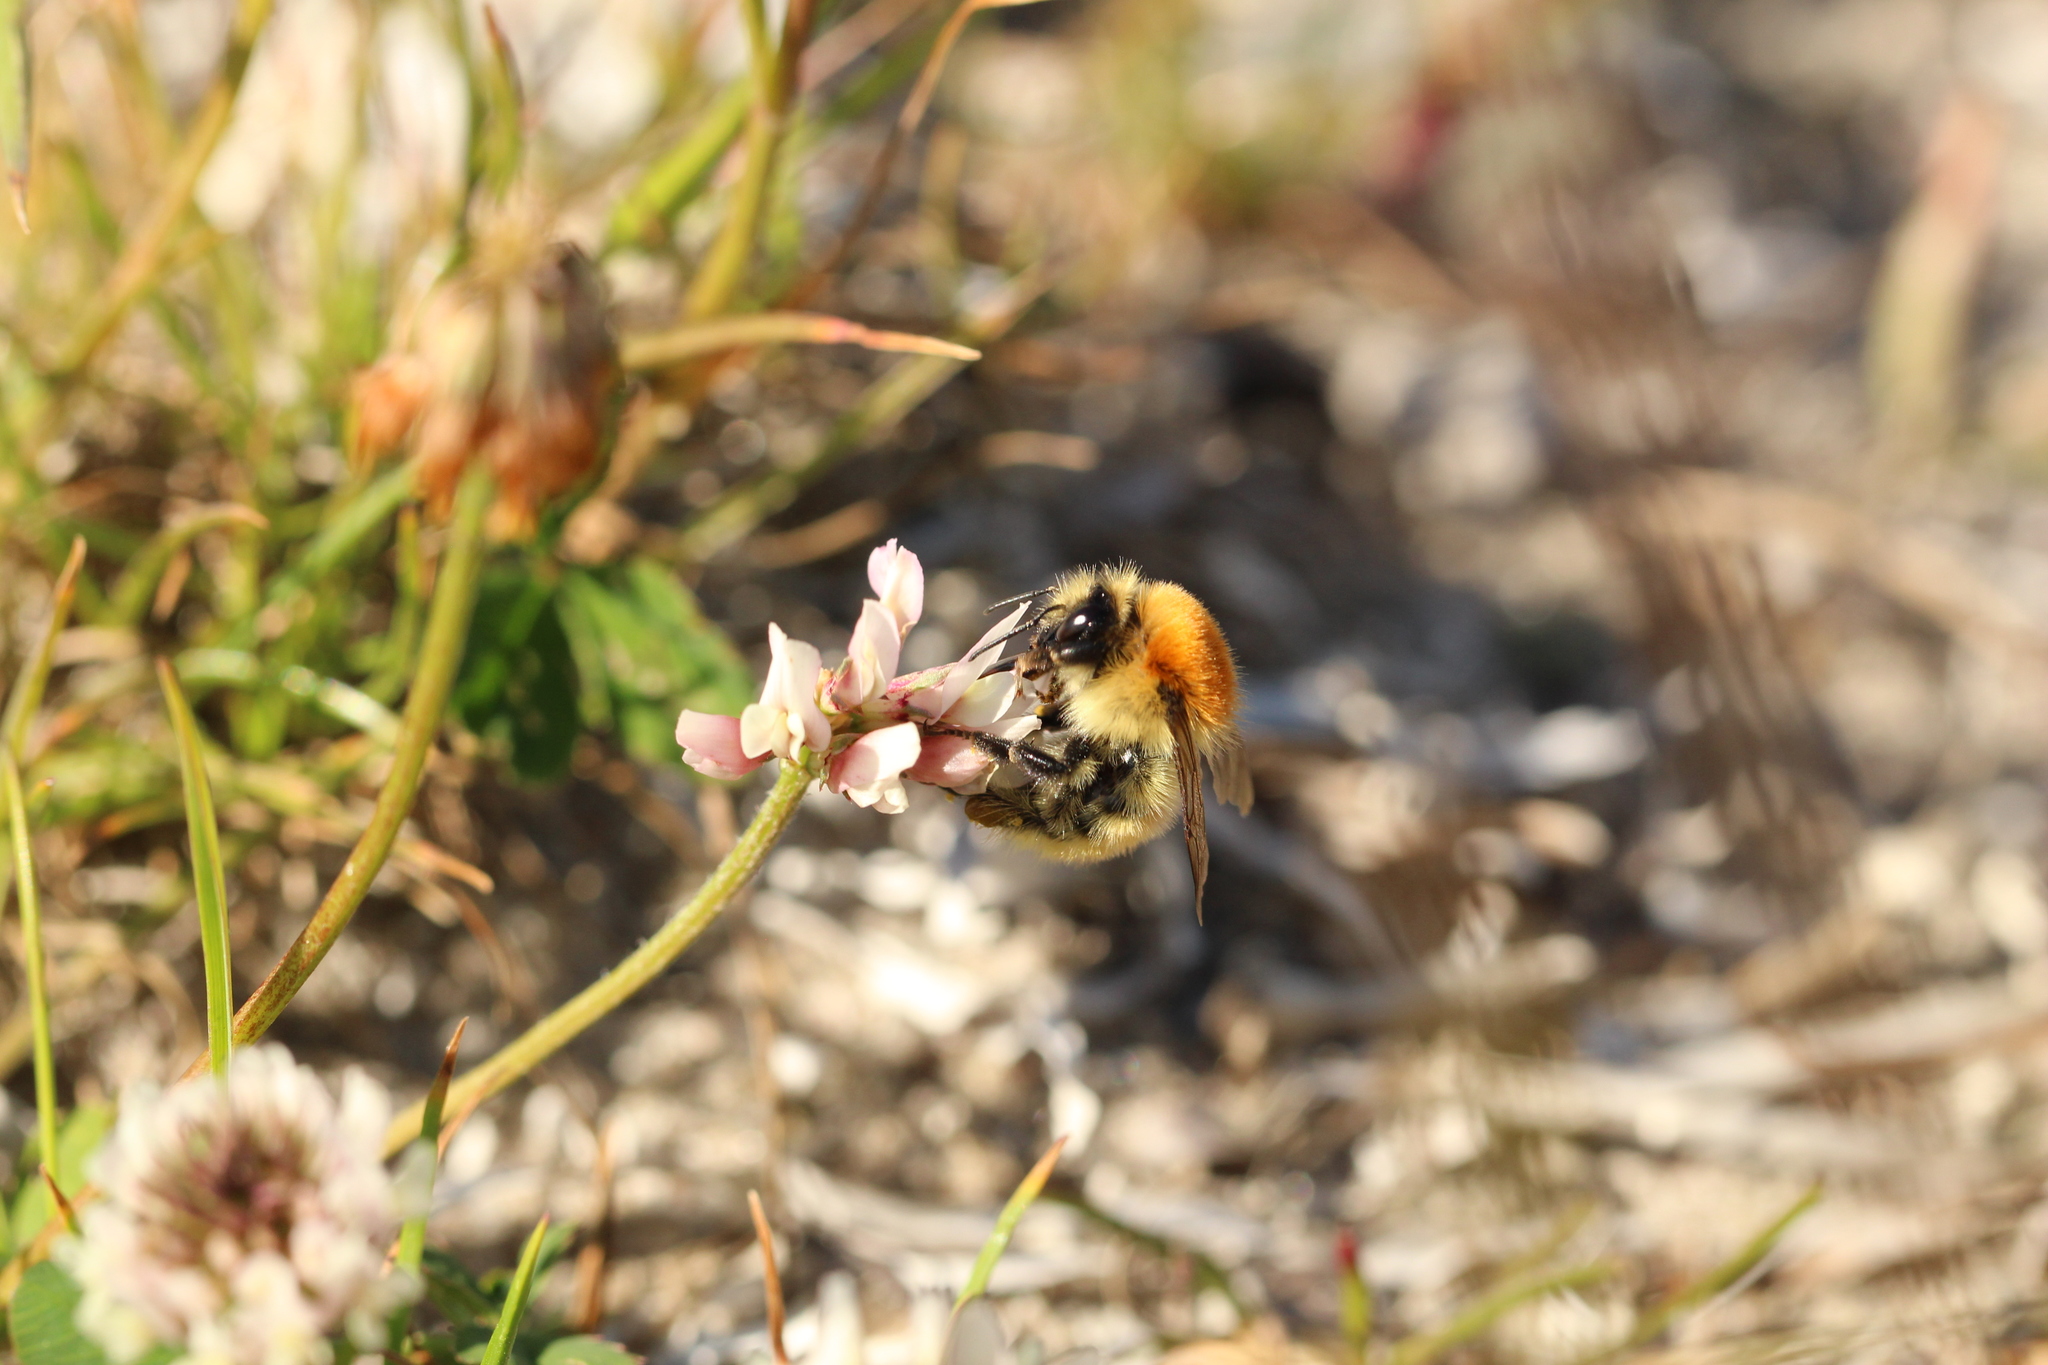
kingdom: Animalia
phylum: Arthropoda
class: Insecta
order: Hymenoptera
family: Apidae
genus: Bombus
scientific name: Bombus muscorum
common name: Moss carder-bee
